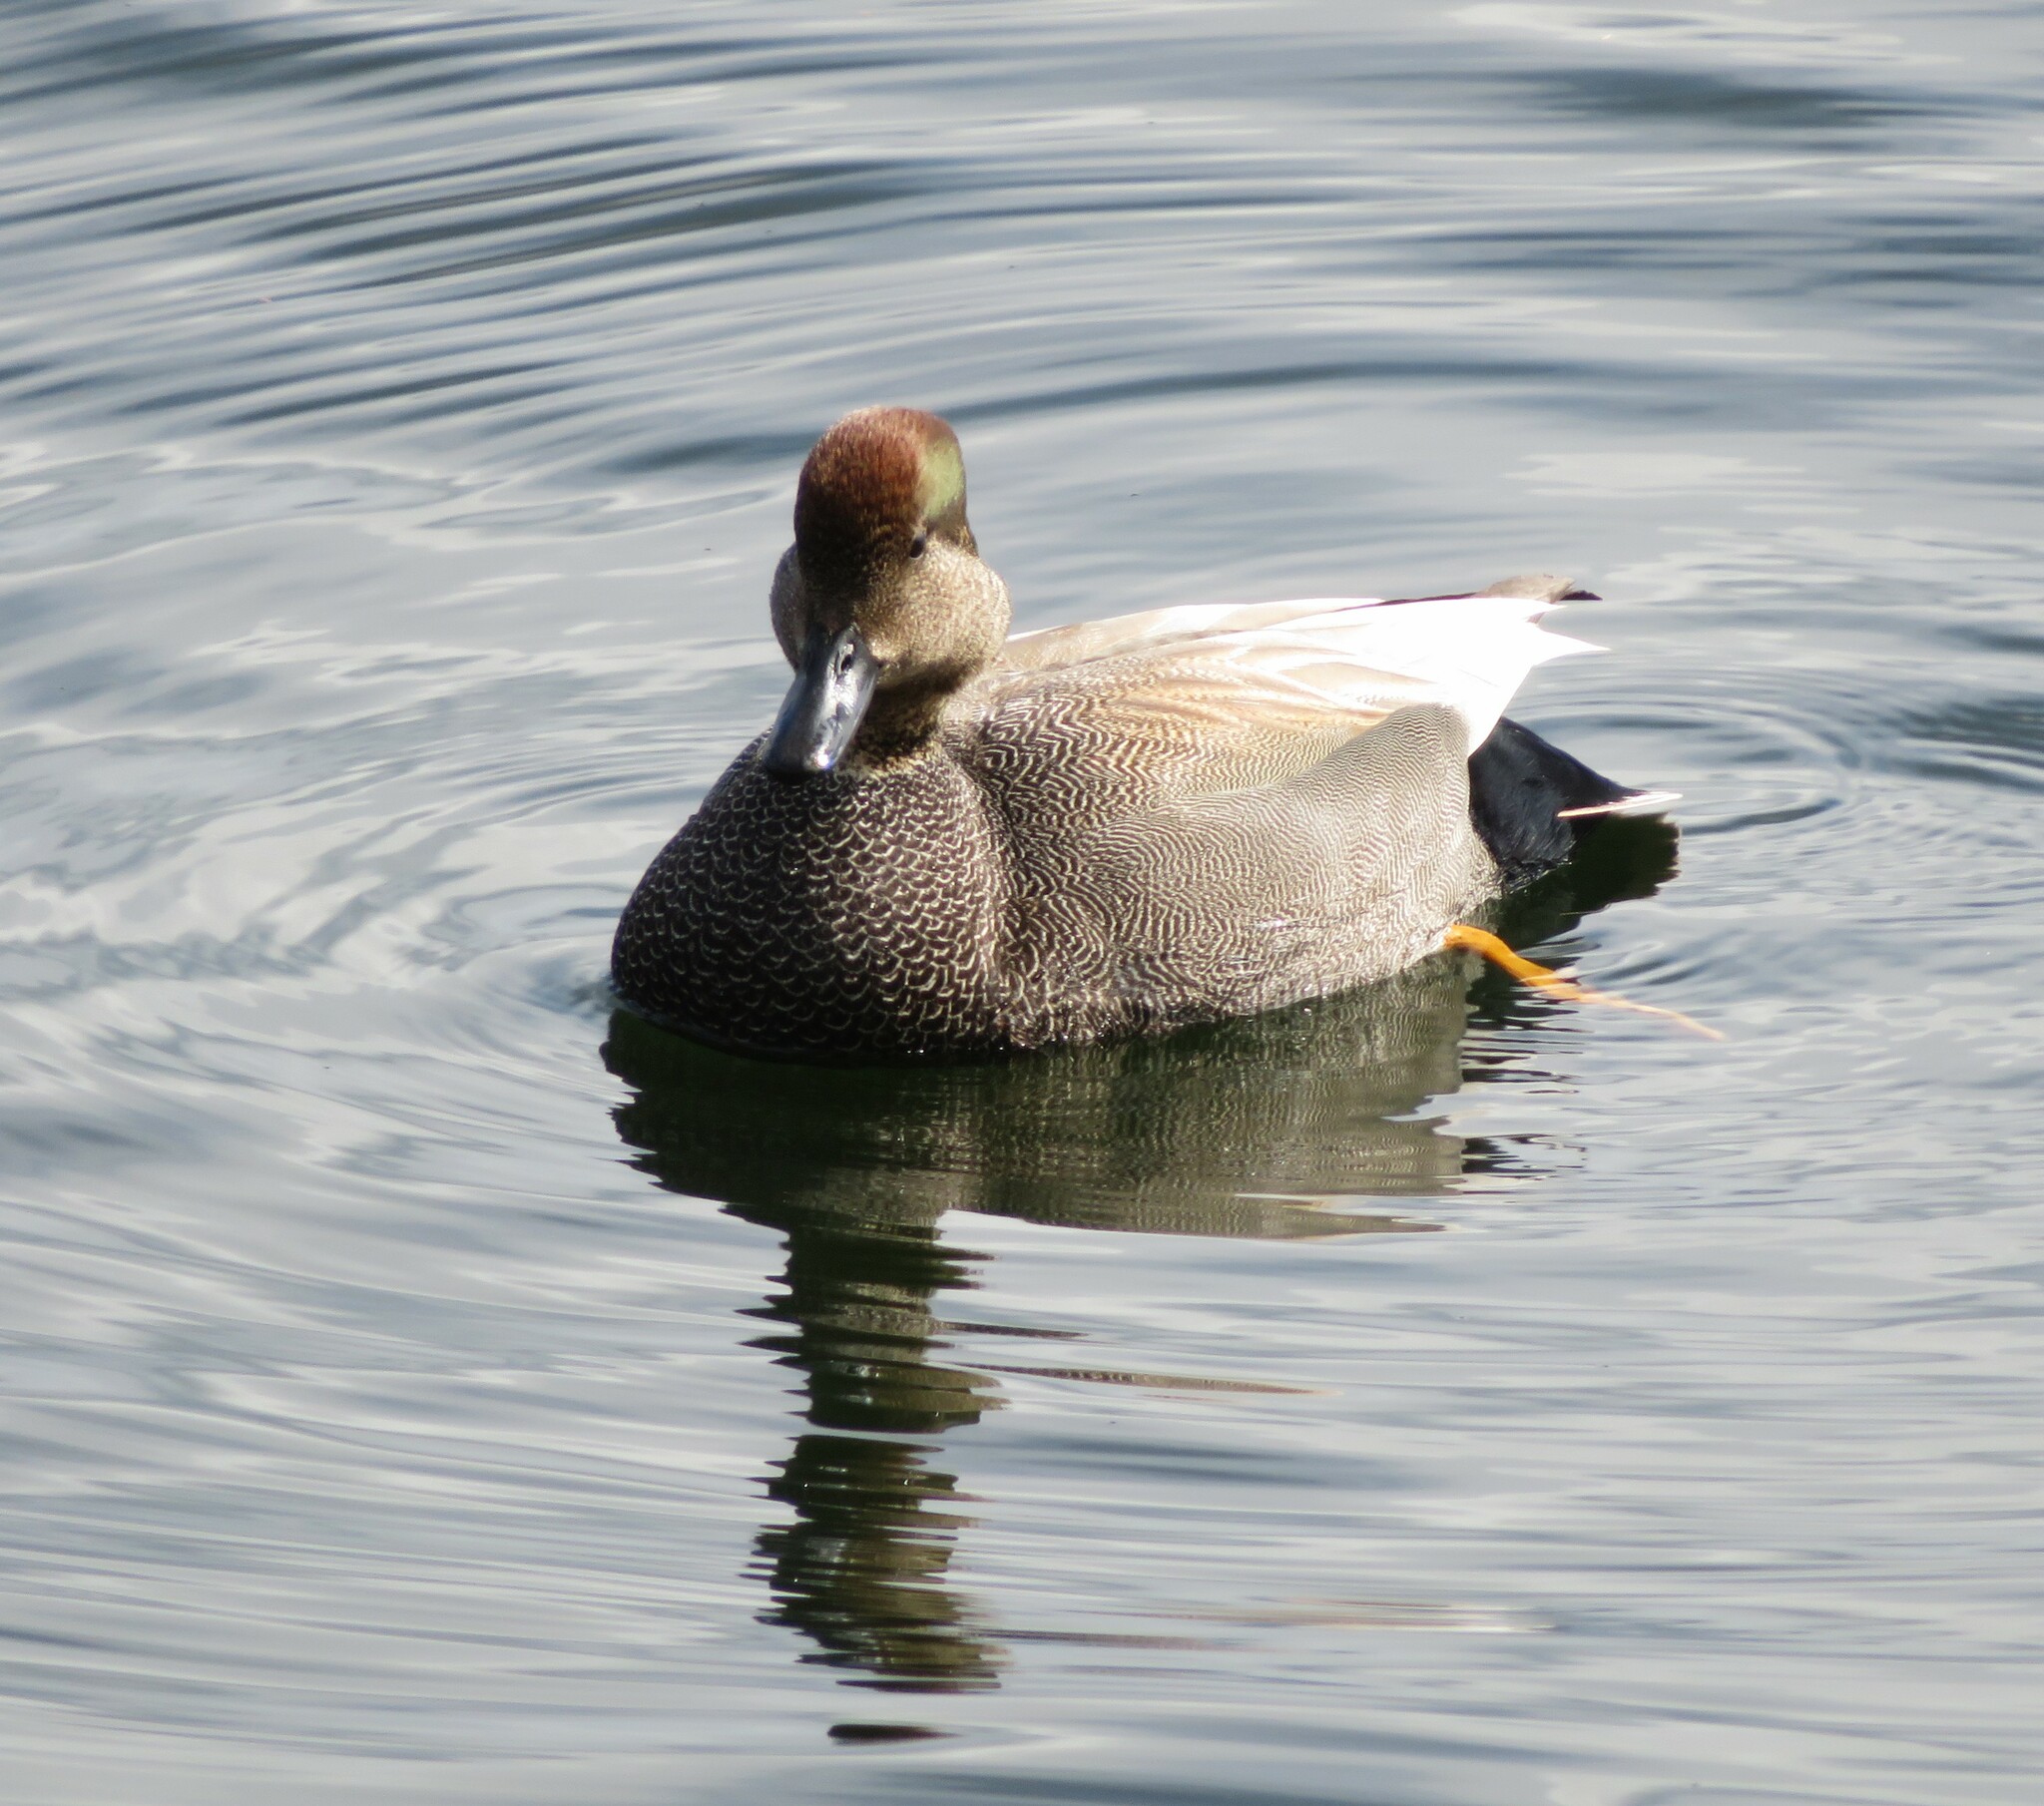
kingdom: Animalia
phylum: Chordata
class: Aves
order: Anseriformes
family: Anatidae
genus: Mareca
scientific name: Mareca strepera
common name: Gadwall
